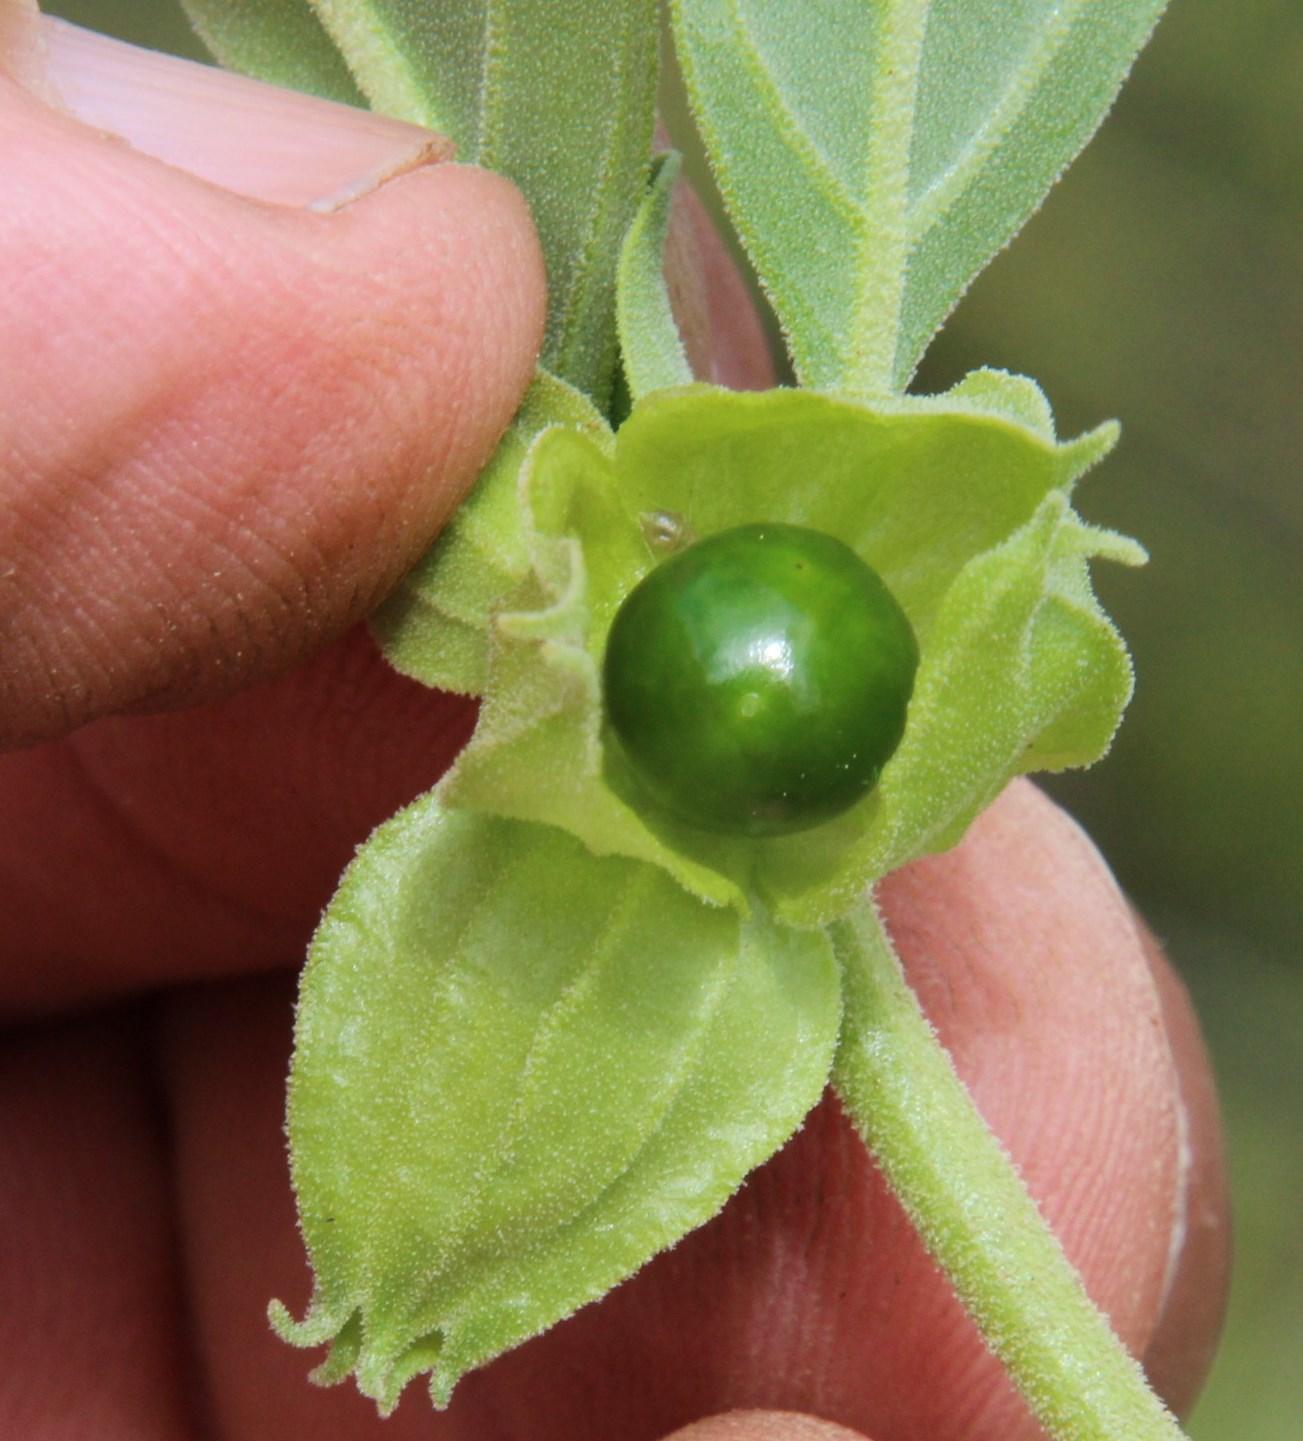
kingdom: Plantae
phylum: Tracheophyta
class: Magnoliopsida
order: Solanales
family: Solanaceae
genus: Withania
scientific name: Withania somnifera
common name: Winter-cherry
